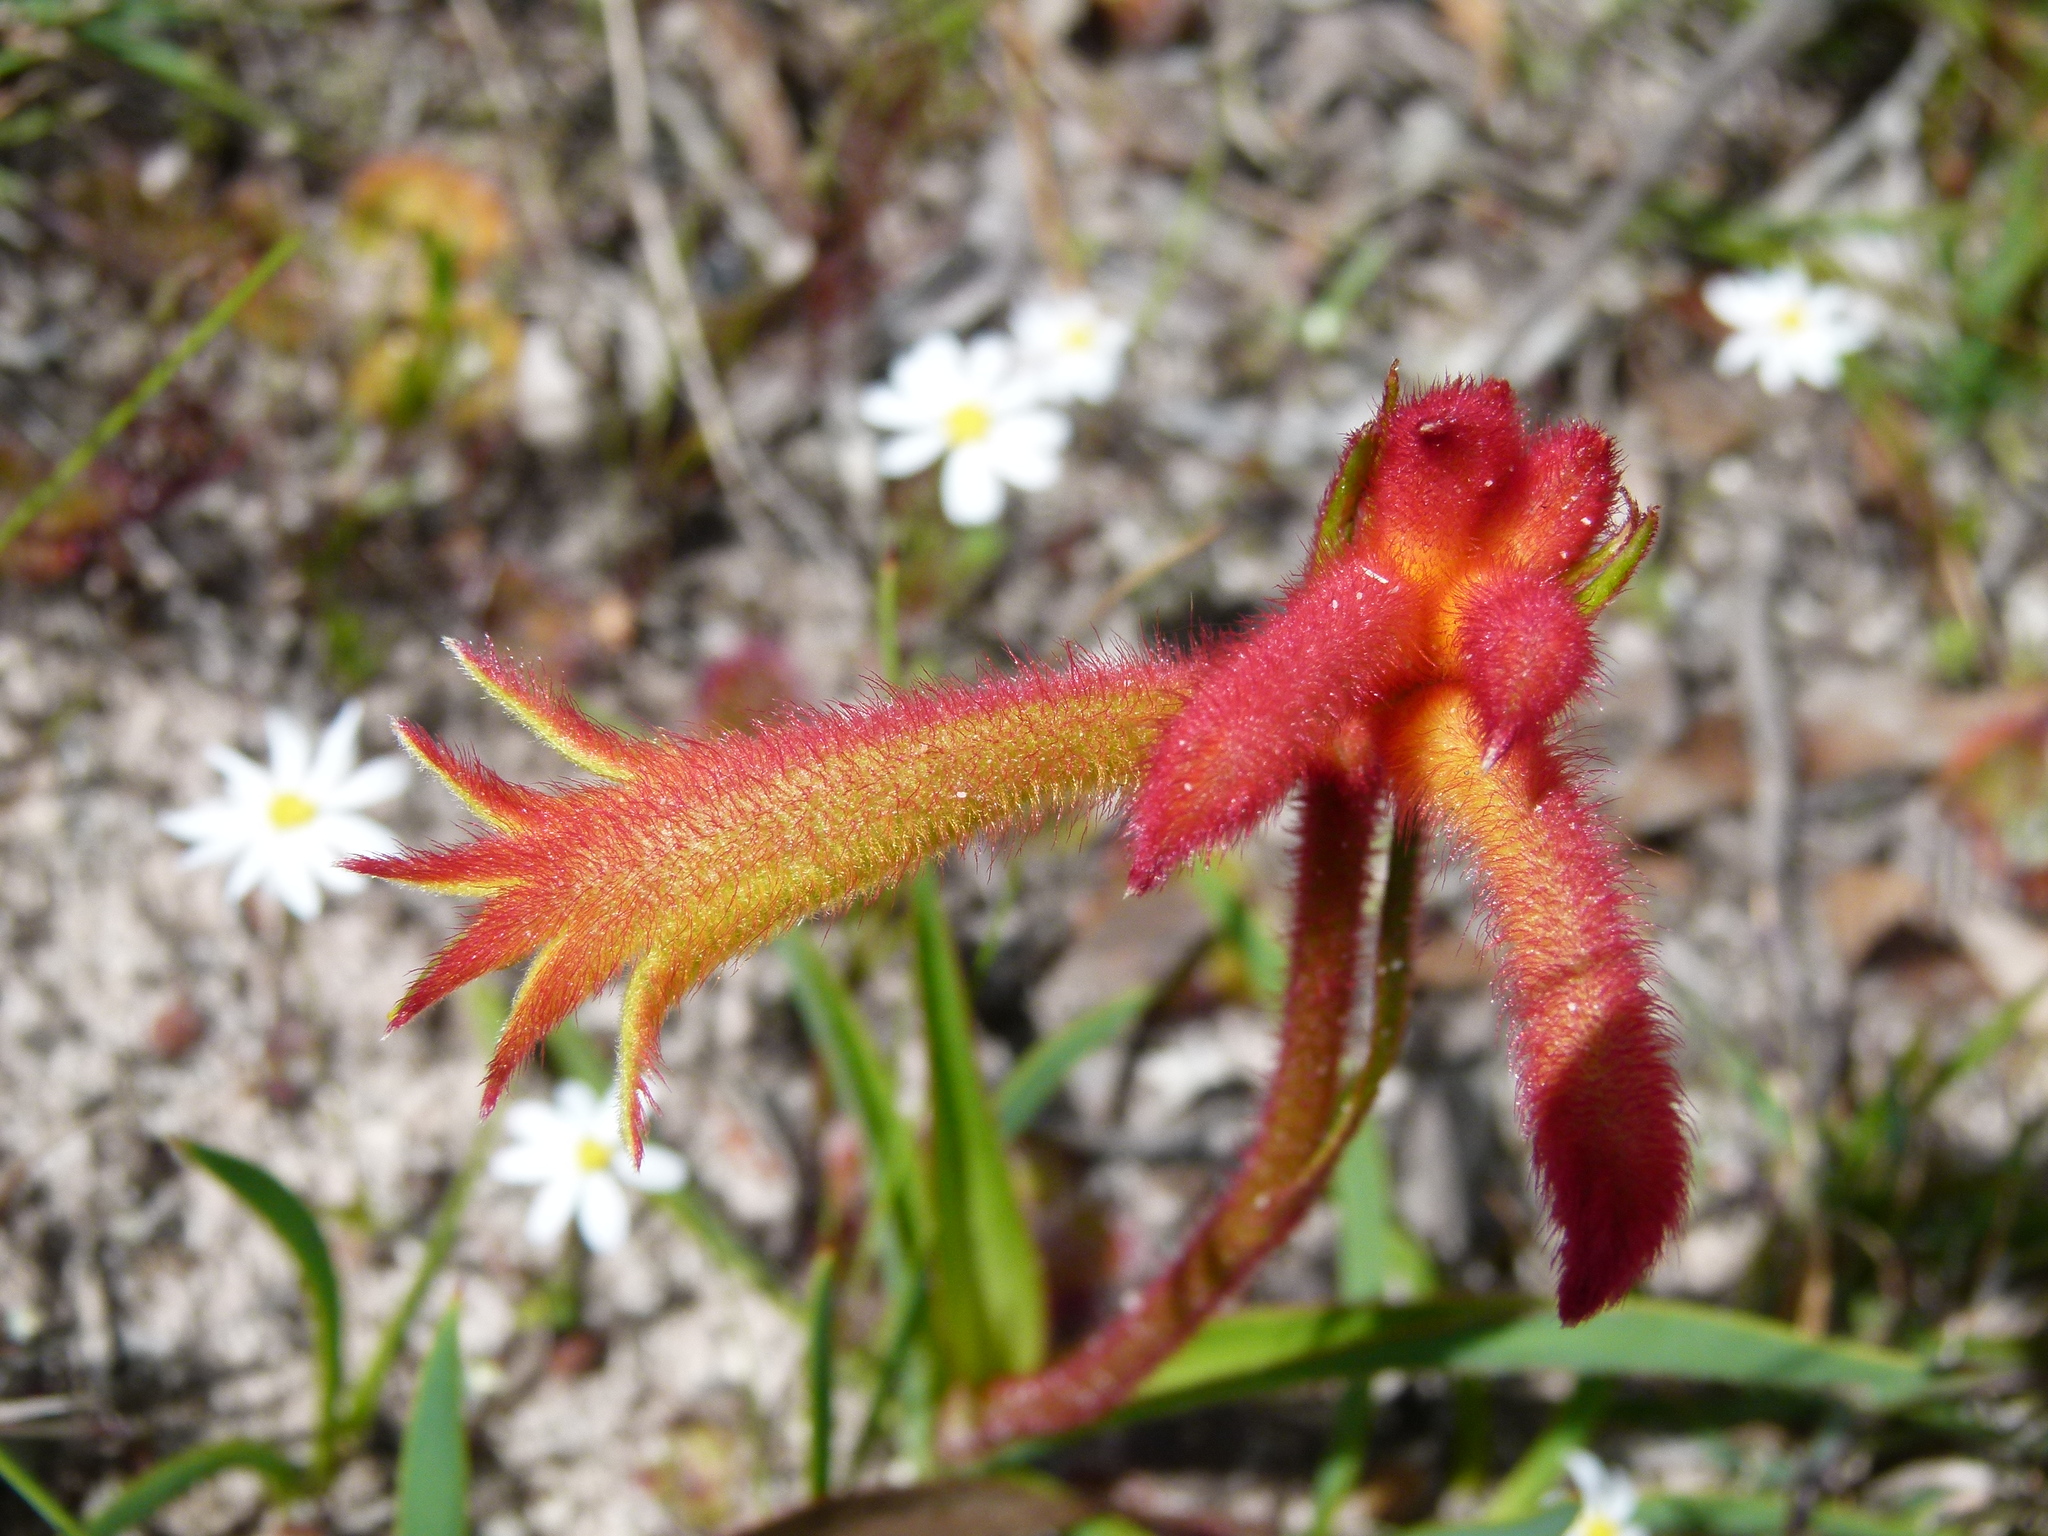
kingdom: Plantae
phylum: Tracheophyta
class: Liliopsida
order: Commelinales
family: Haemodoraceae
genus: Anigozanthos
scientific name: Anigozanthos humilis
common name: Cat's-paw
